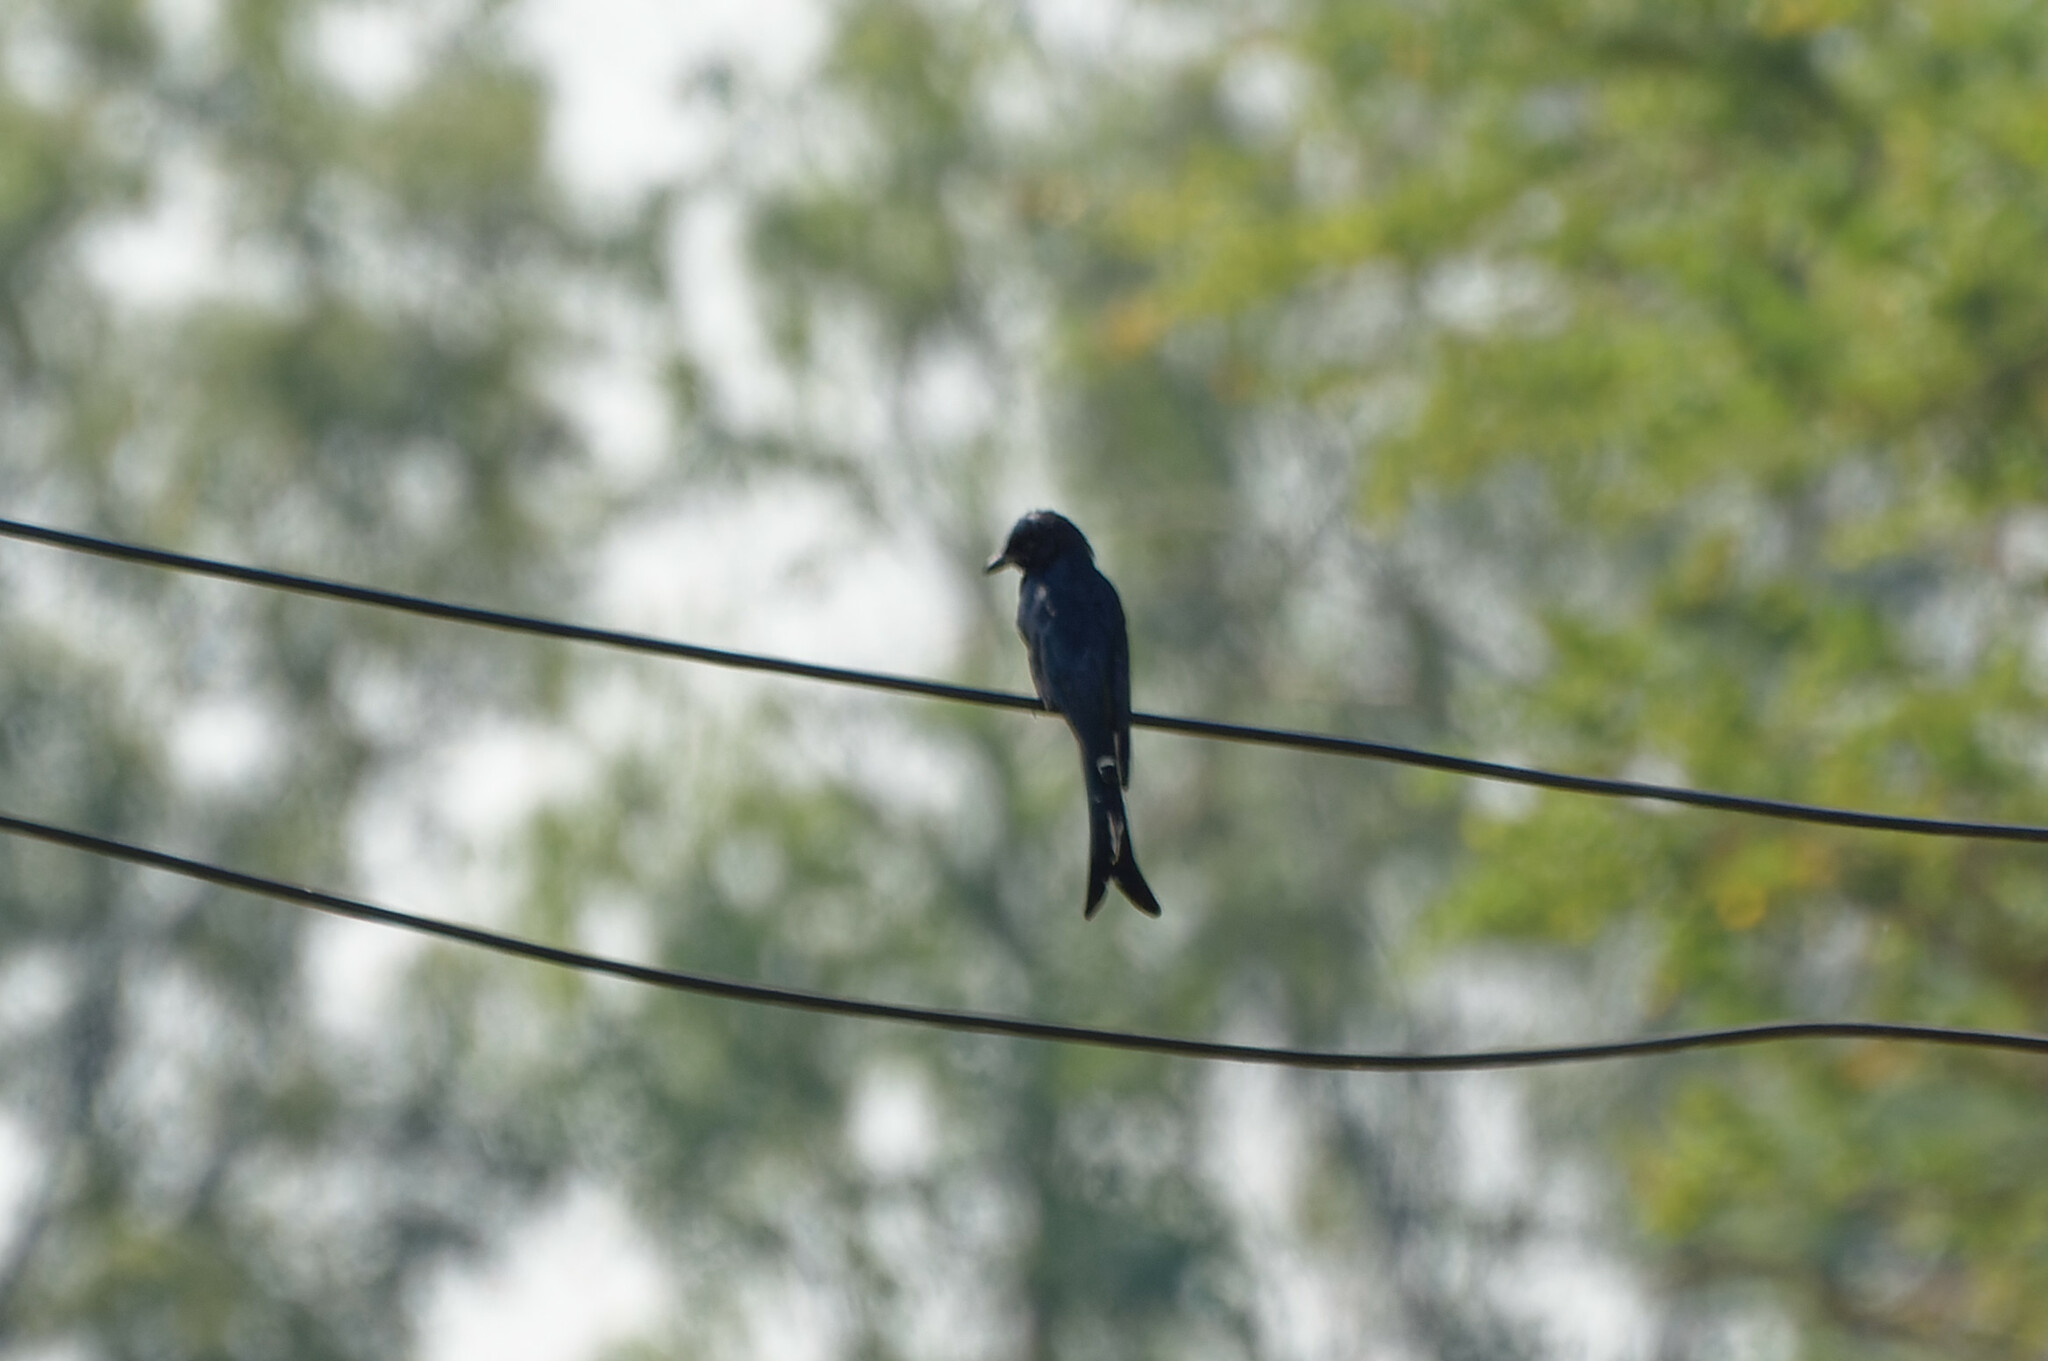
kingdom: Animalia
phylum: Chordata
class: Aves
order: Passeriformes
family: Dicruridae
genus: Dicrurus
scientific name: Dicrurus macrocercus
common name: Black drongo
